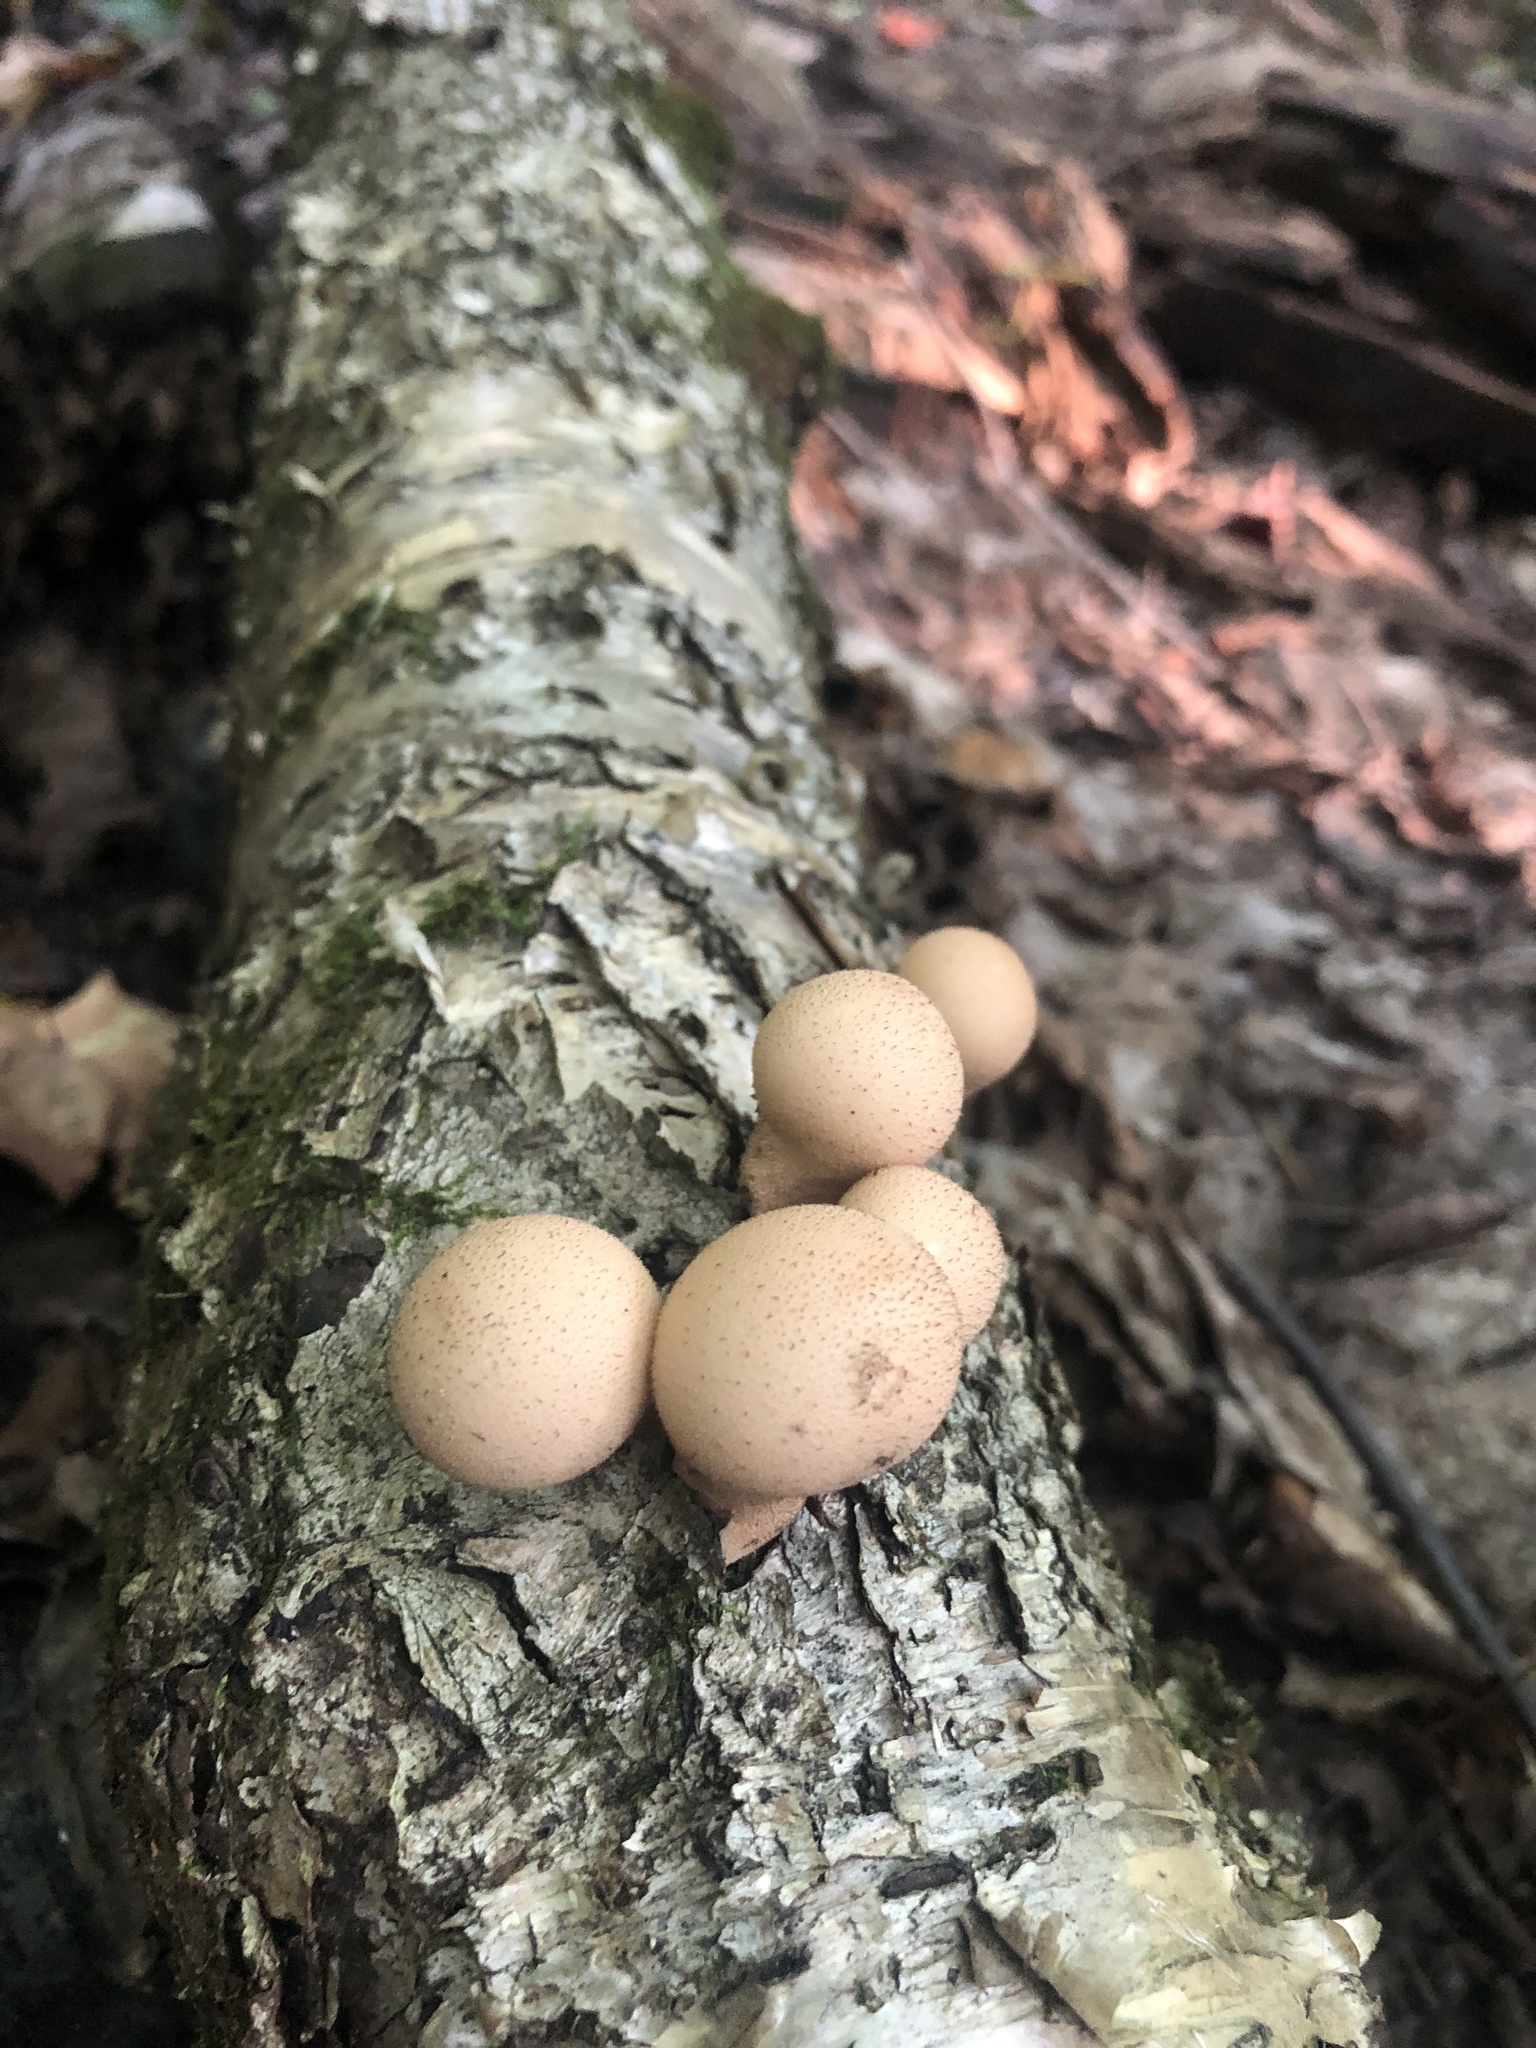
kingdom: Fungi
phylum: Basidiomycota
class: Agaricomycetes
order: Agaricales
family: Lycoperdaceae
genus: Apioperdon
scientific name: Apioperdon pyriforme
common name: Pear-shaped puffball
